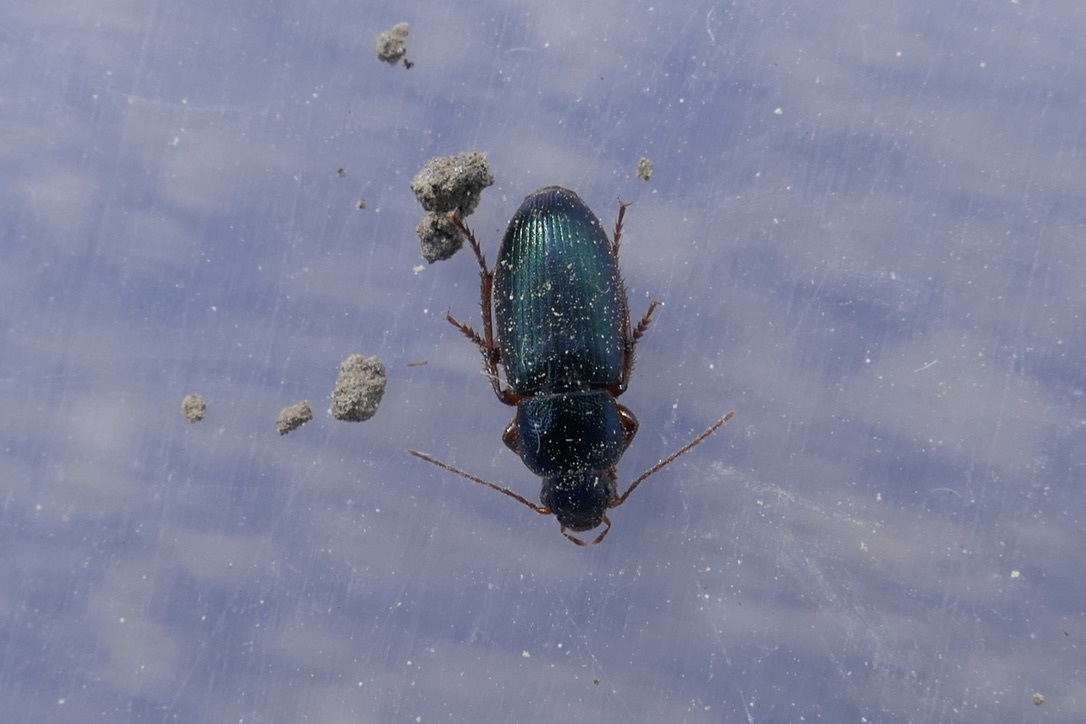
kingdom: Animalia
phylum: Arthropoda
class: Insecta
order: Coleoptera
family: Carabidae
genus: Ophonus
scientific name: Ophonus azureus
